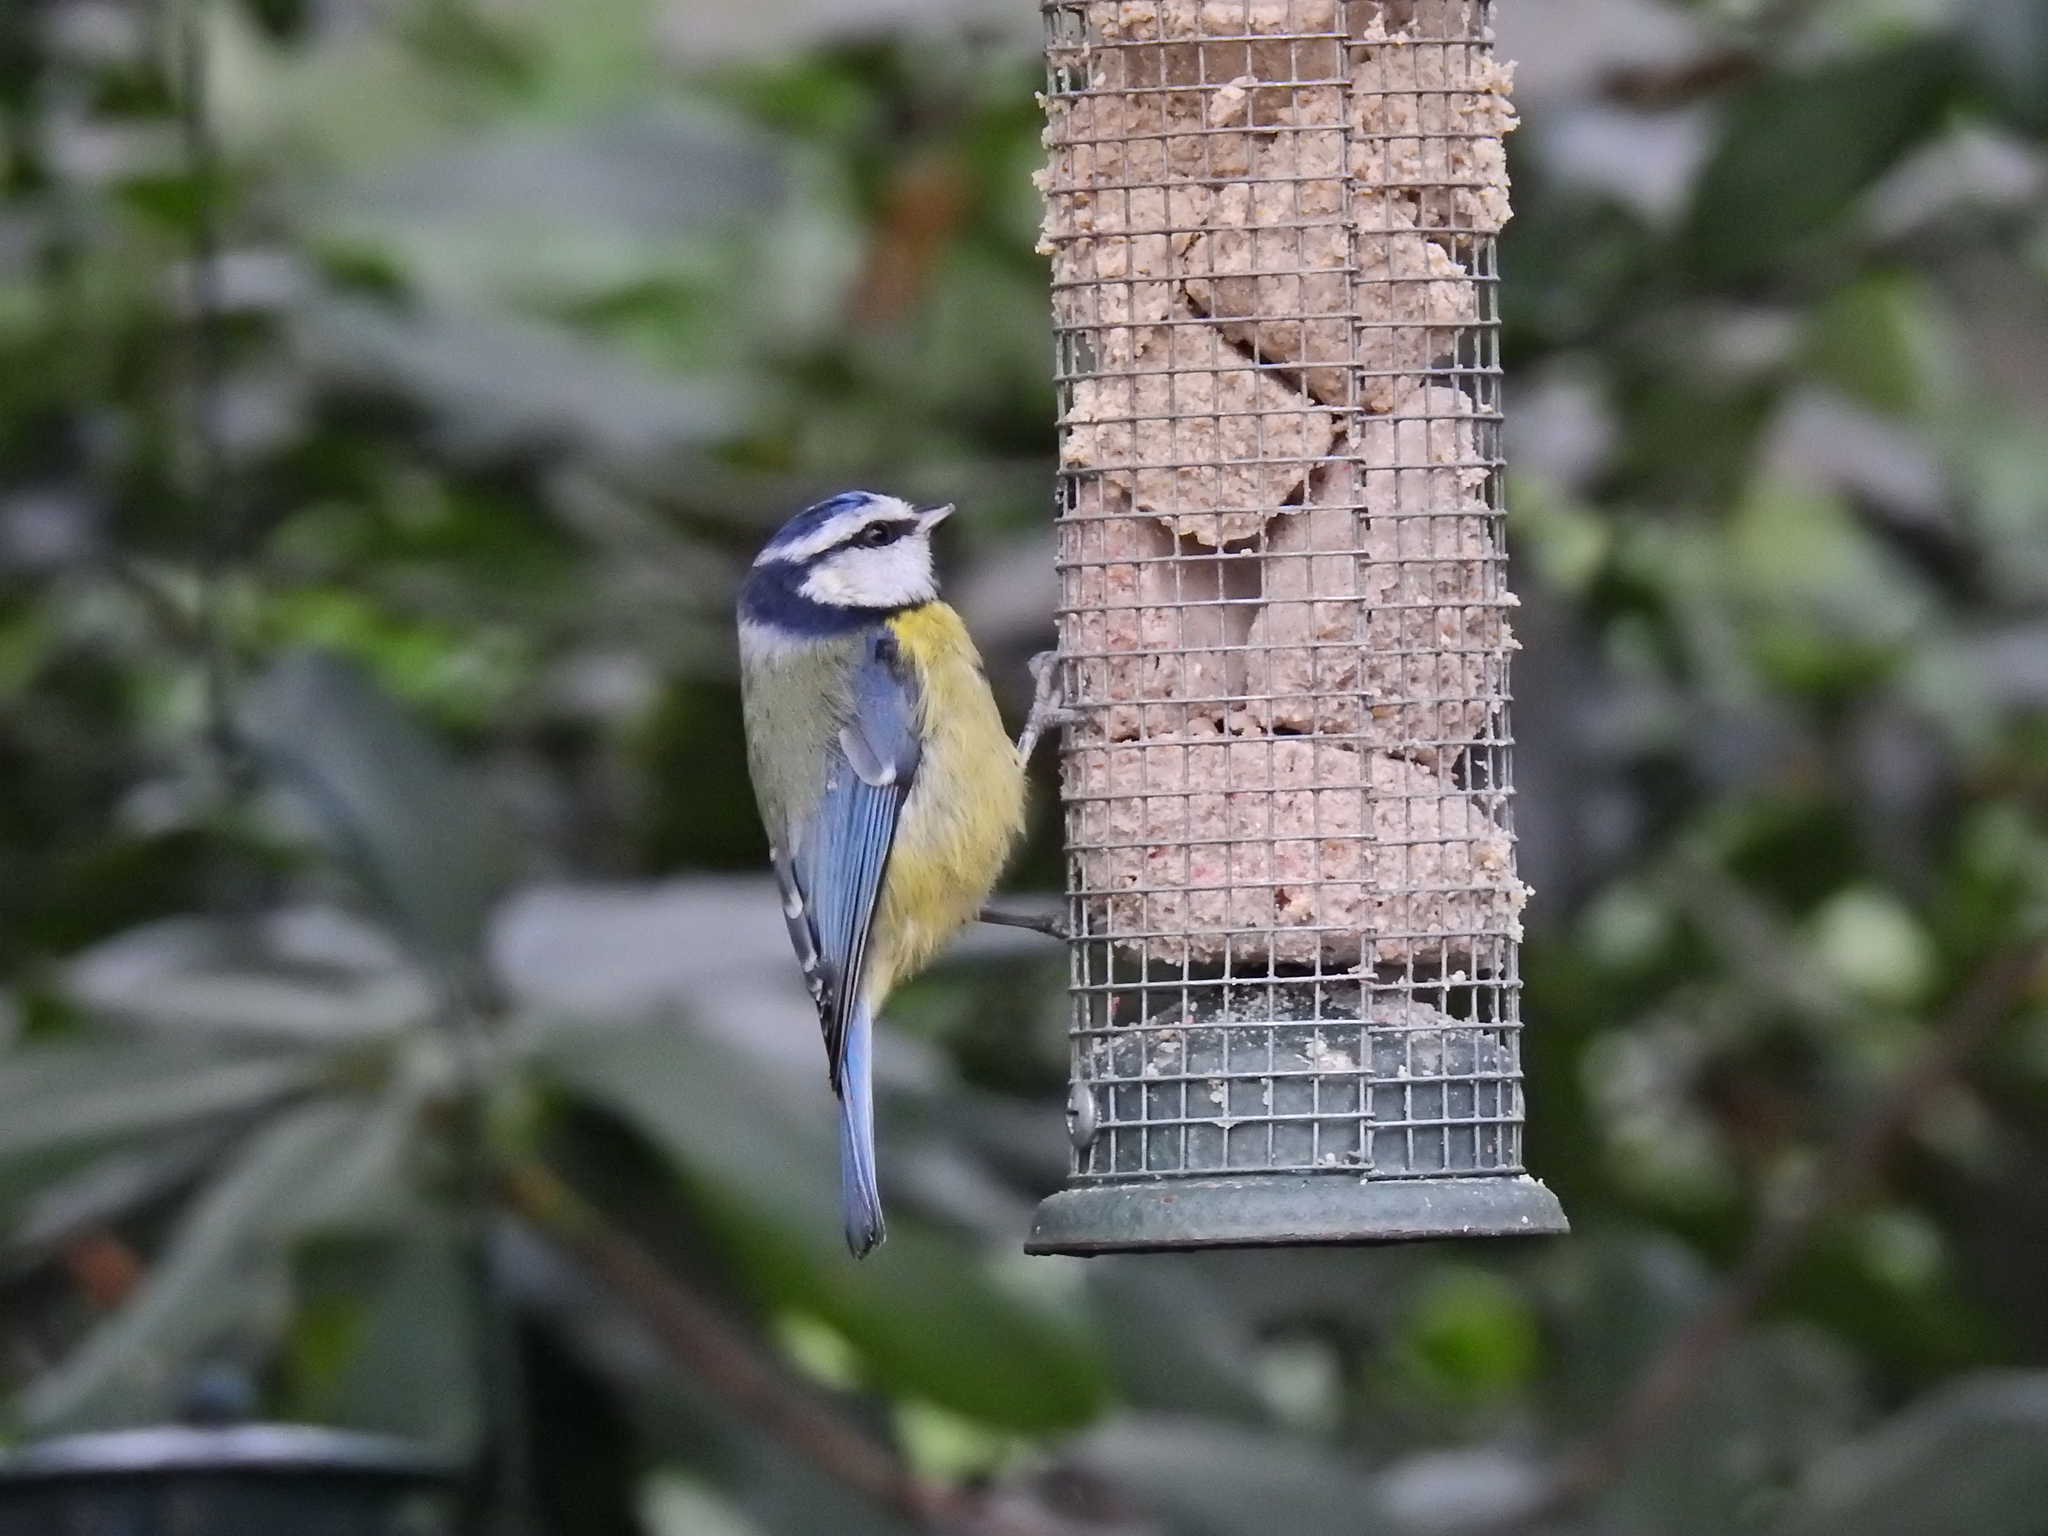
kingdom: Animalia
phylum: Chordata
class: Aves
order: Passeriformes
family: Paridae
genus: Cyanistes
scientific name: Cyanistes caeruleus
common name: Eurasian blue tit
